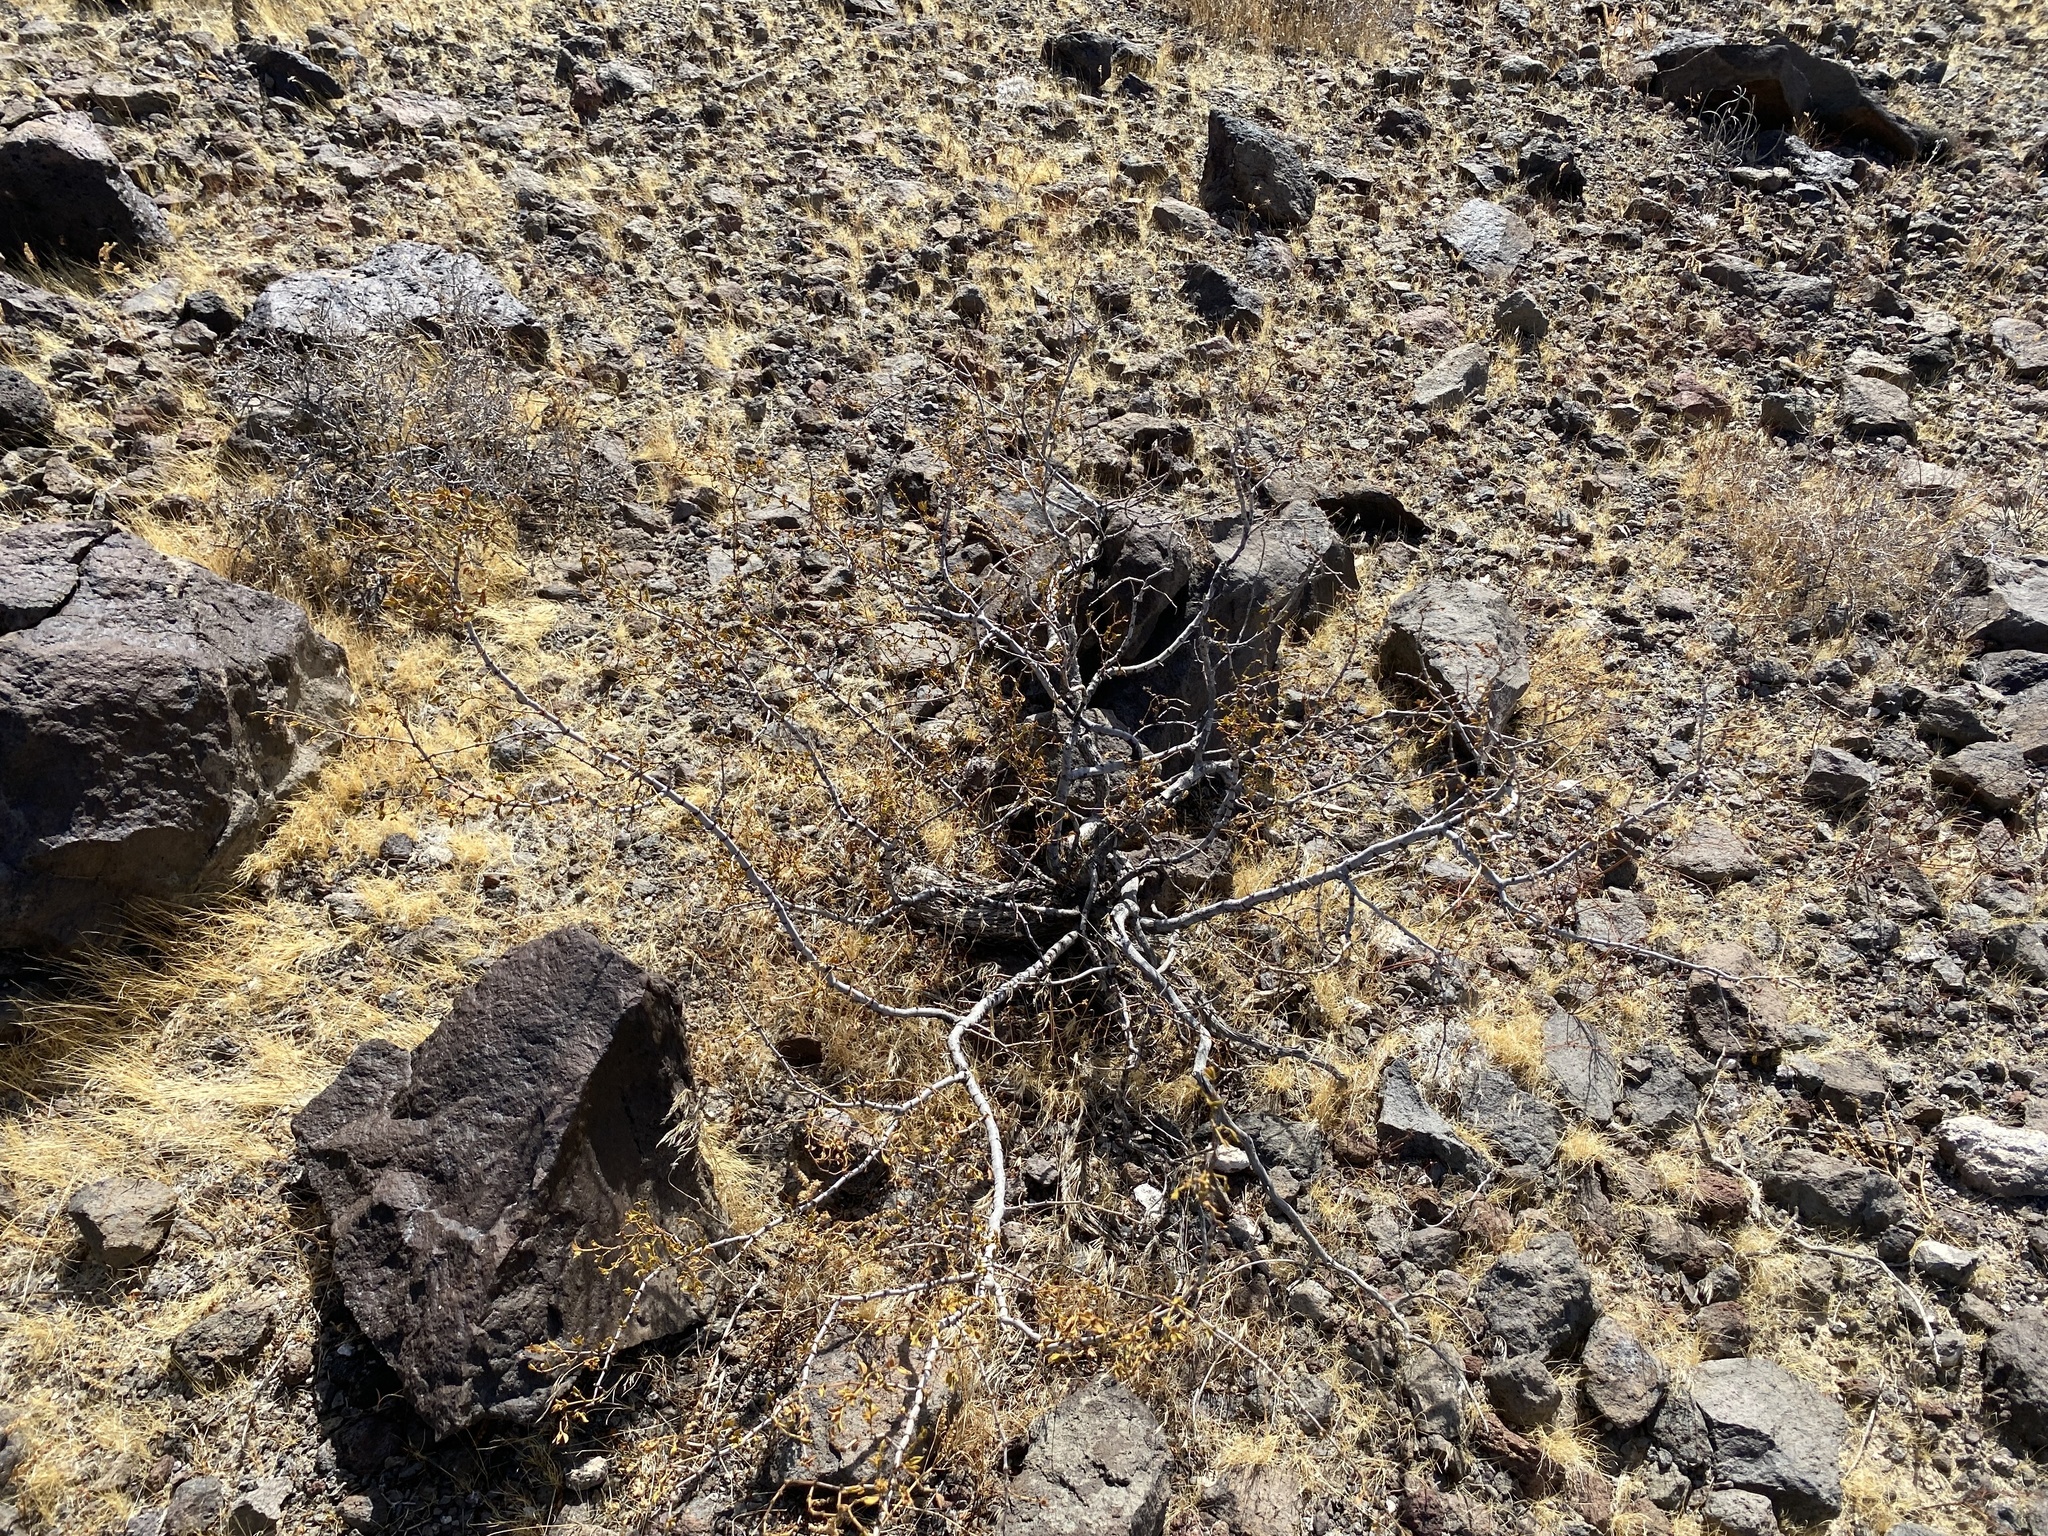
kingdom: Plantae
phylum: Tracheophyta
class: Magnoliopsida
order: Zygophyllales
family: Zygophyllaceae
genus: Larrea
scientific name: Larrea tridentata
